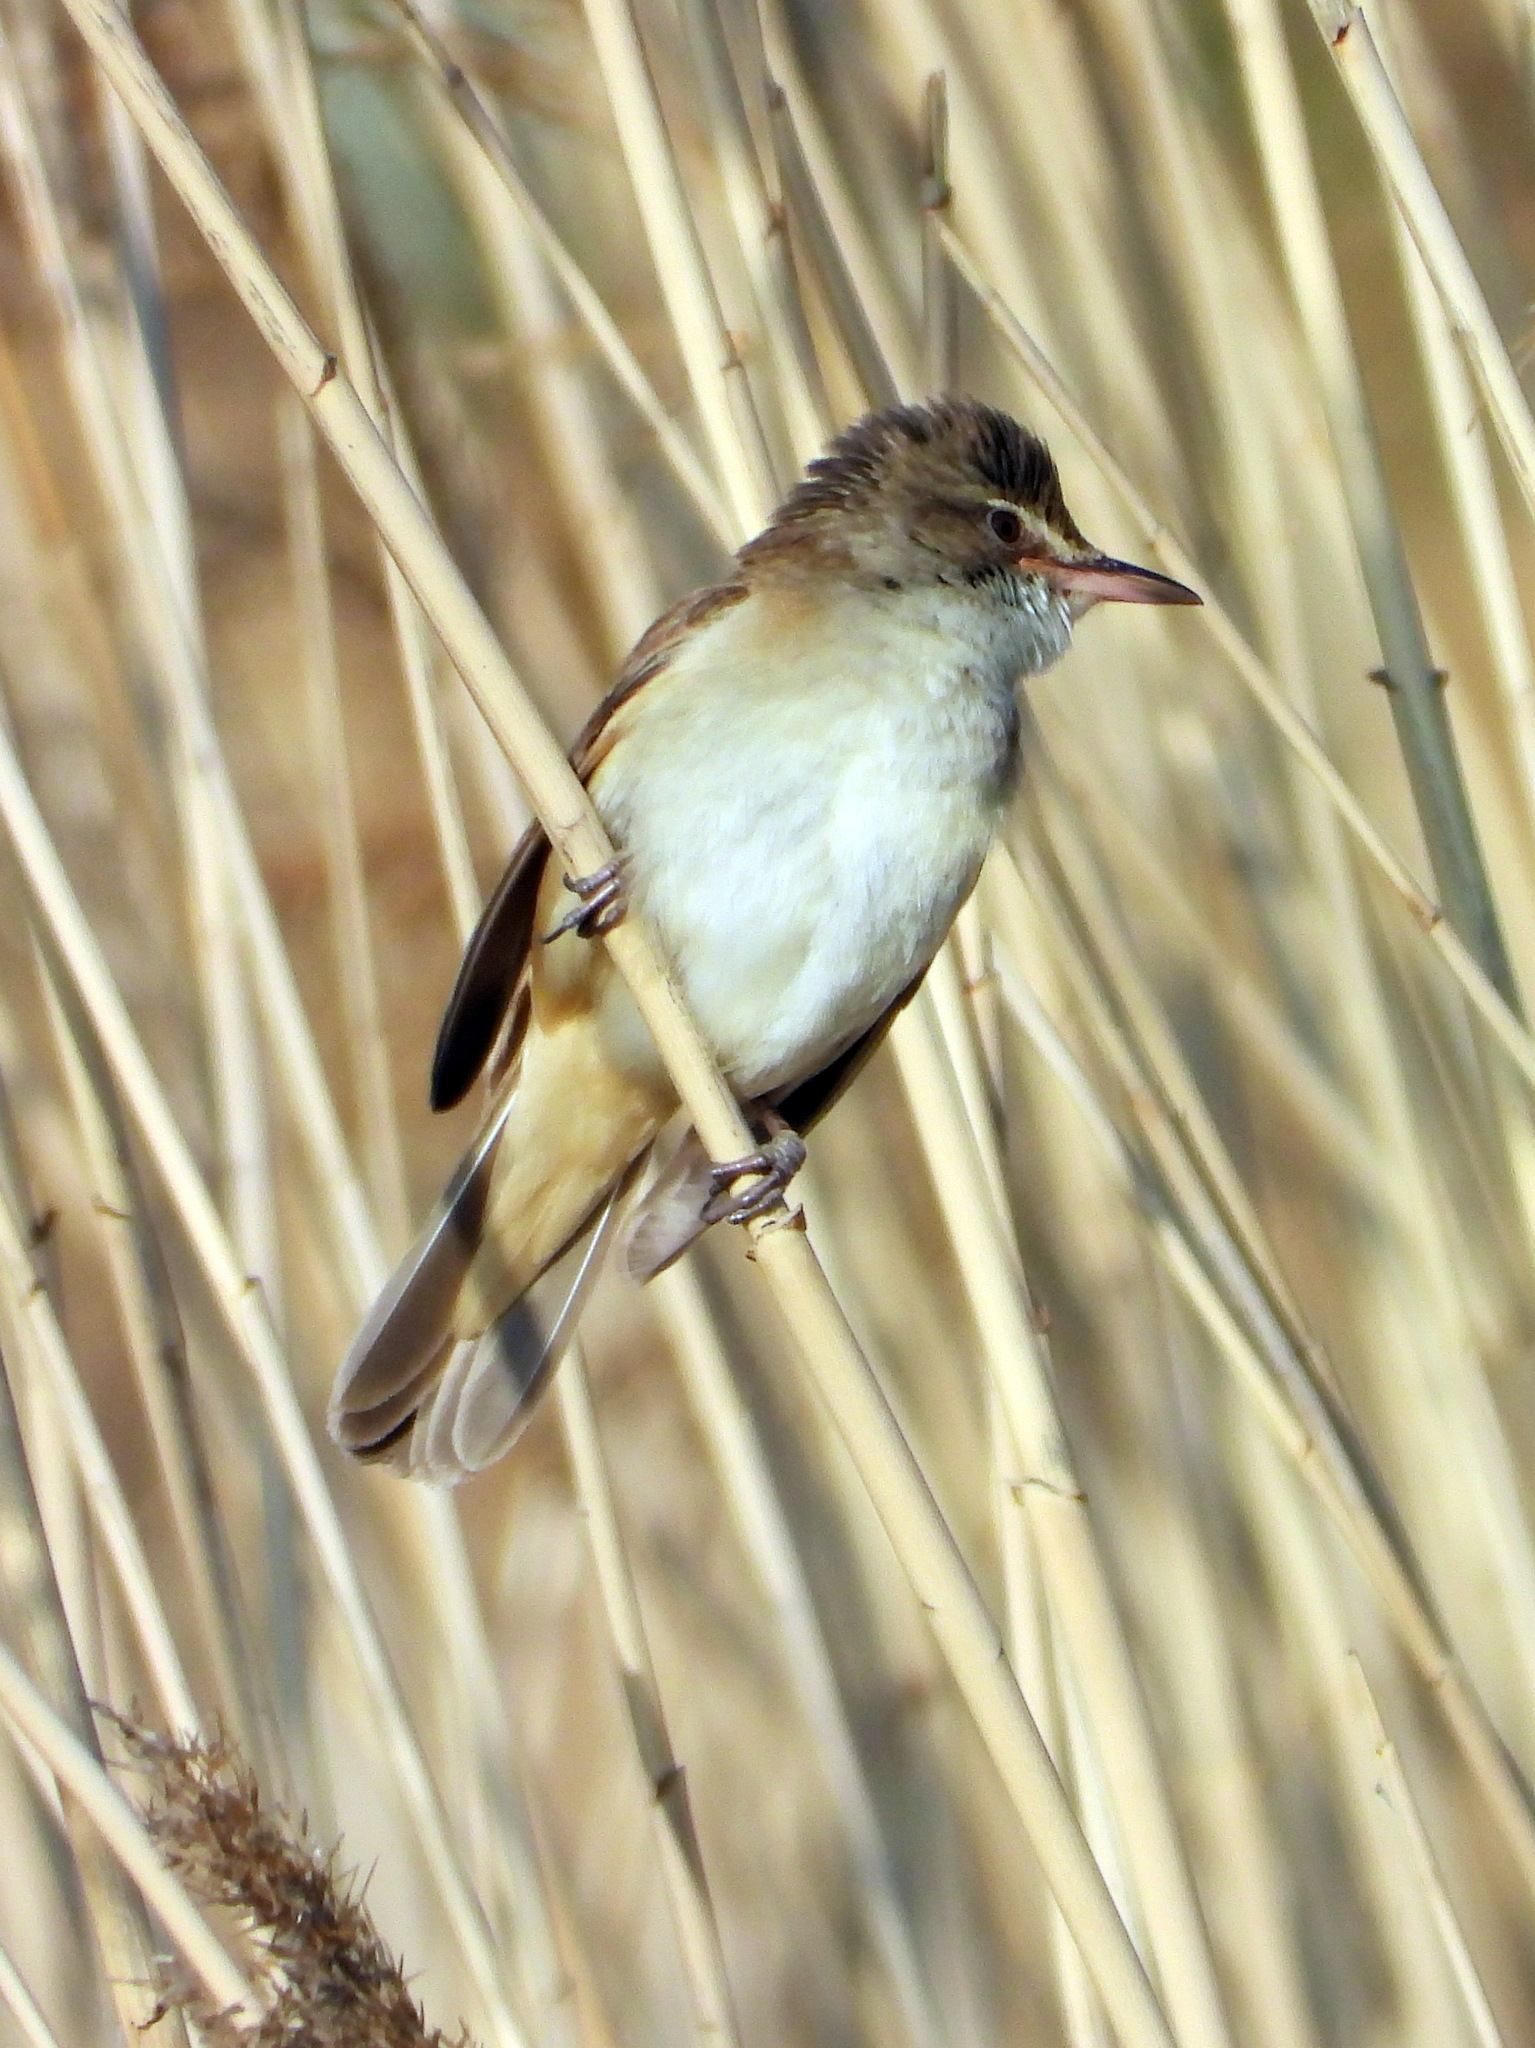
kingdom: Animalia
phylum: Chordata
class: Aves
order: Passeriformes
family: Acrocephalidae
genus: Acrocephalus
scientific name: Acrocephalus arundinaceus
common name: Great reed warbler
